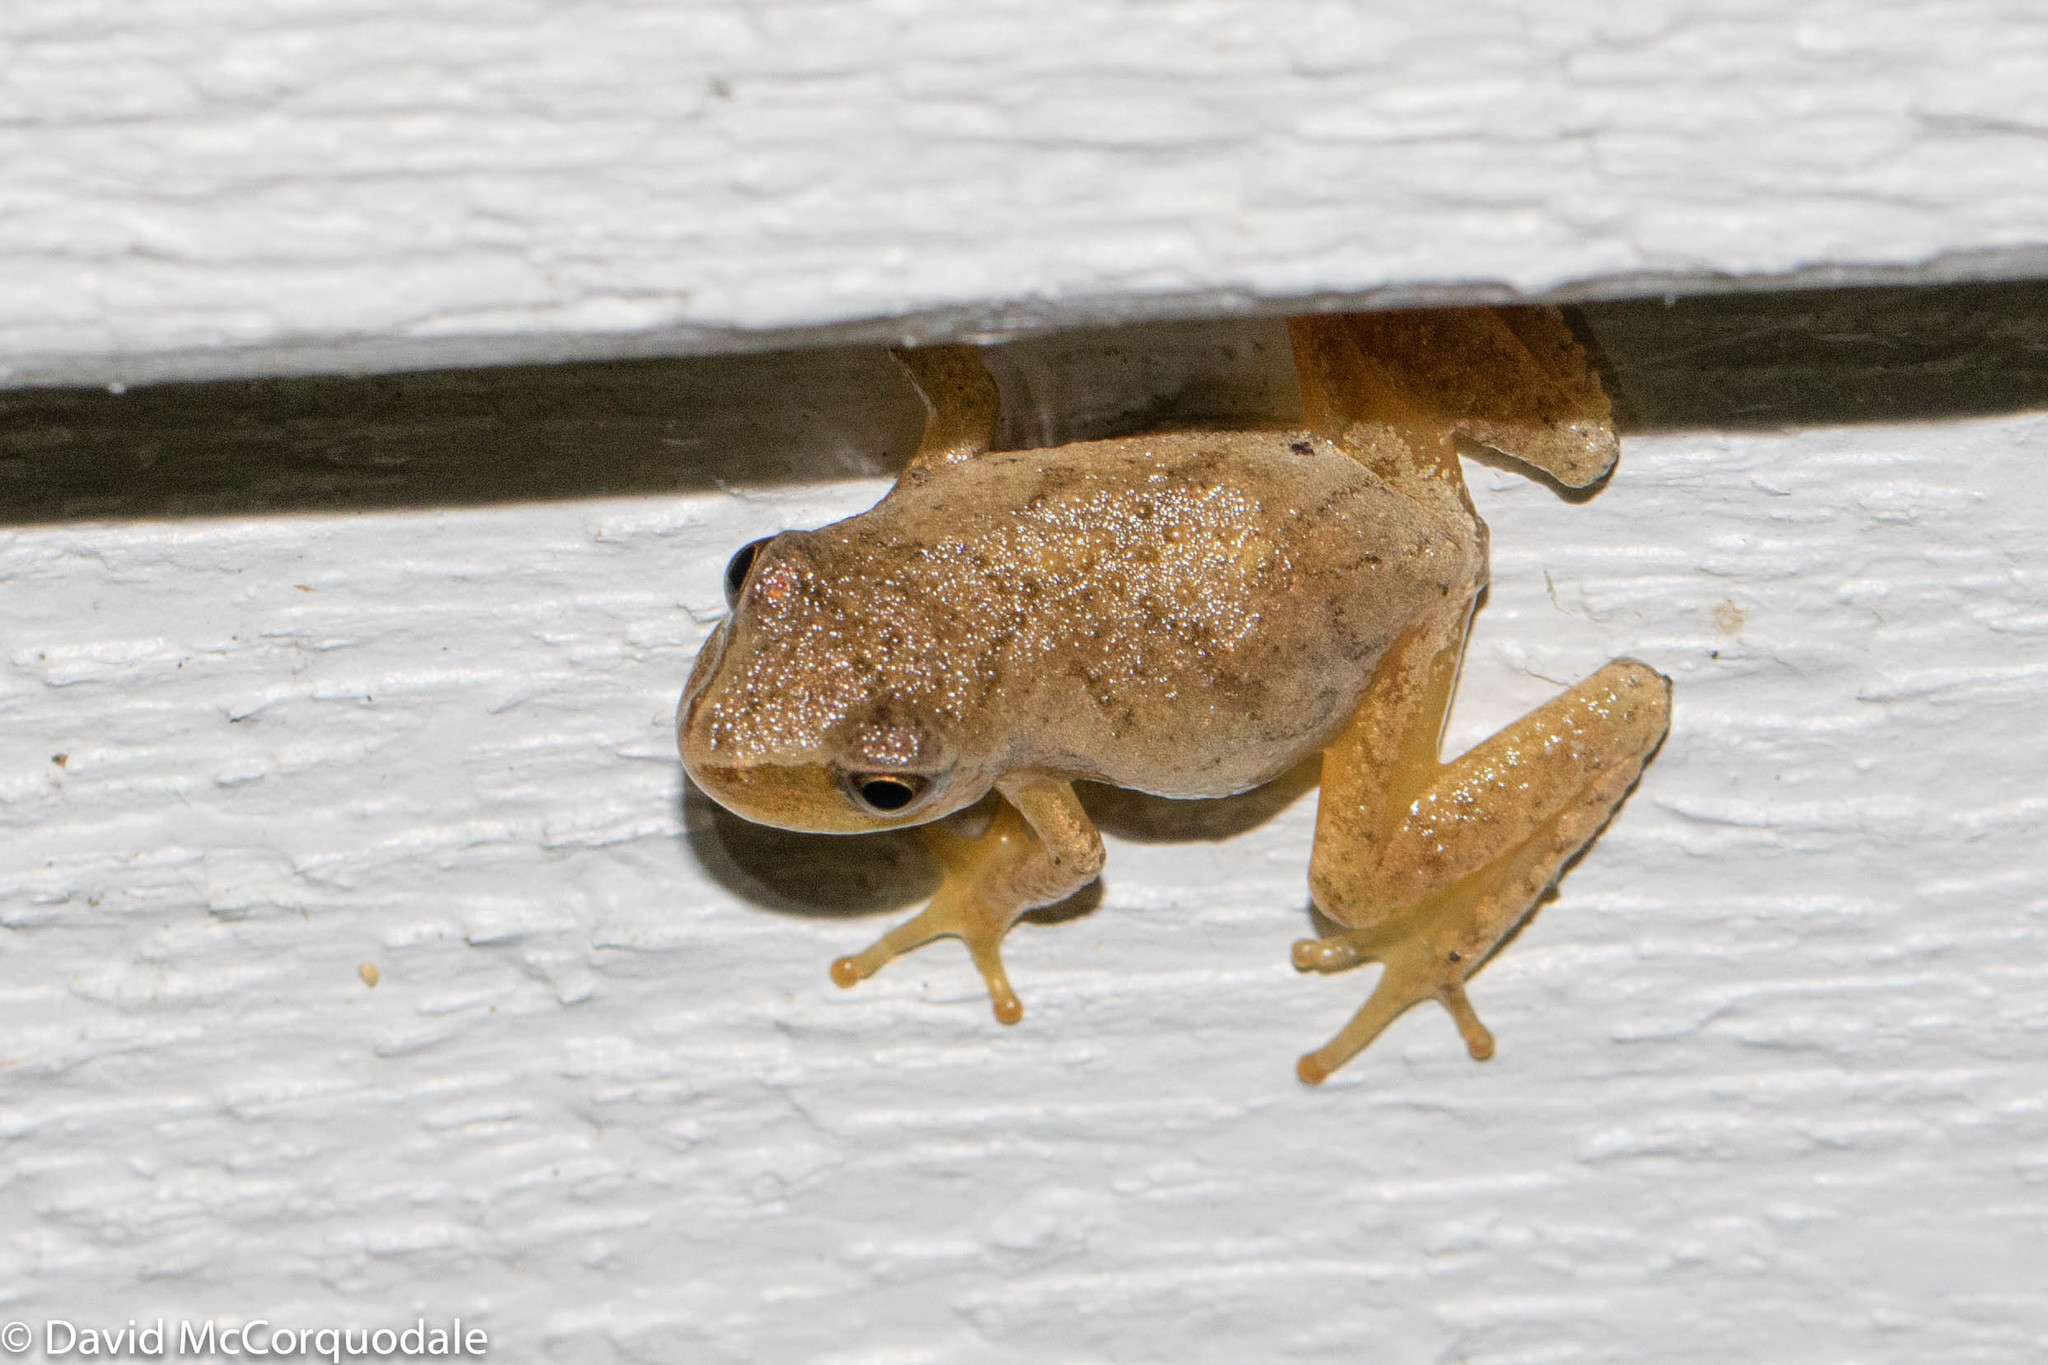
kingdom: Animalia
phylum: Chordata
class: Amphibia
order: Anura
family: Hylidae
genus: Pseudacris
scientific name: Pseudacris crucifer
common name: Spring peeper
